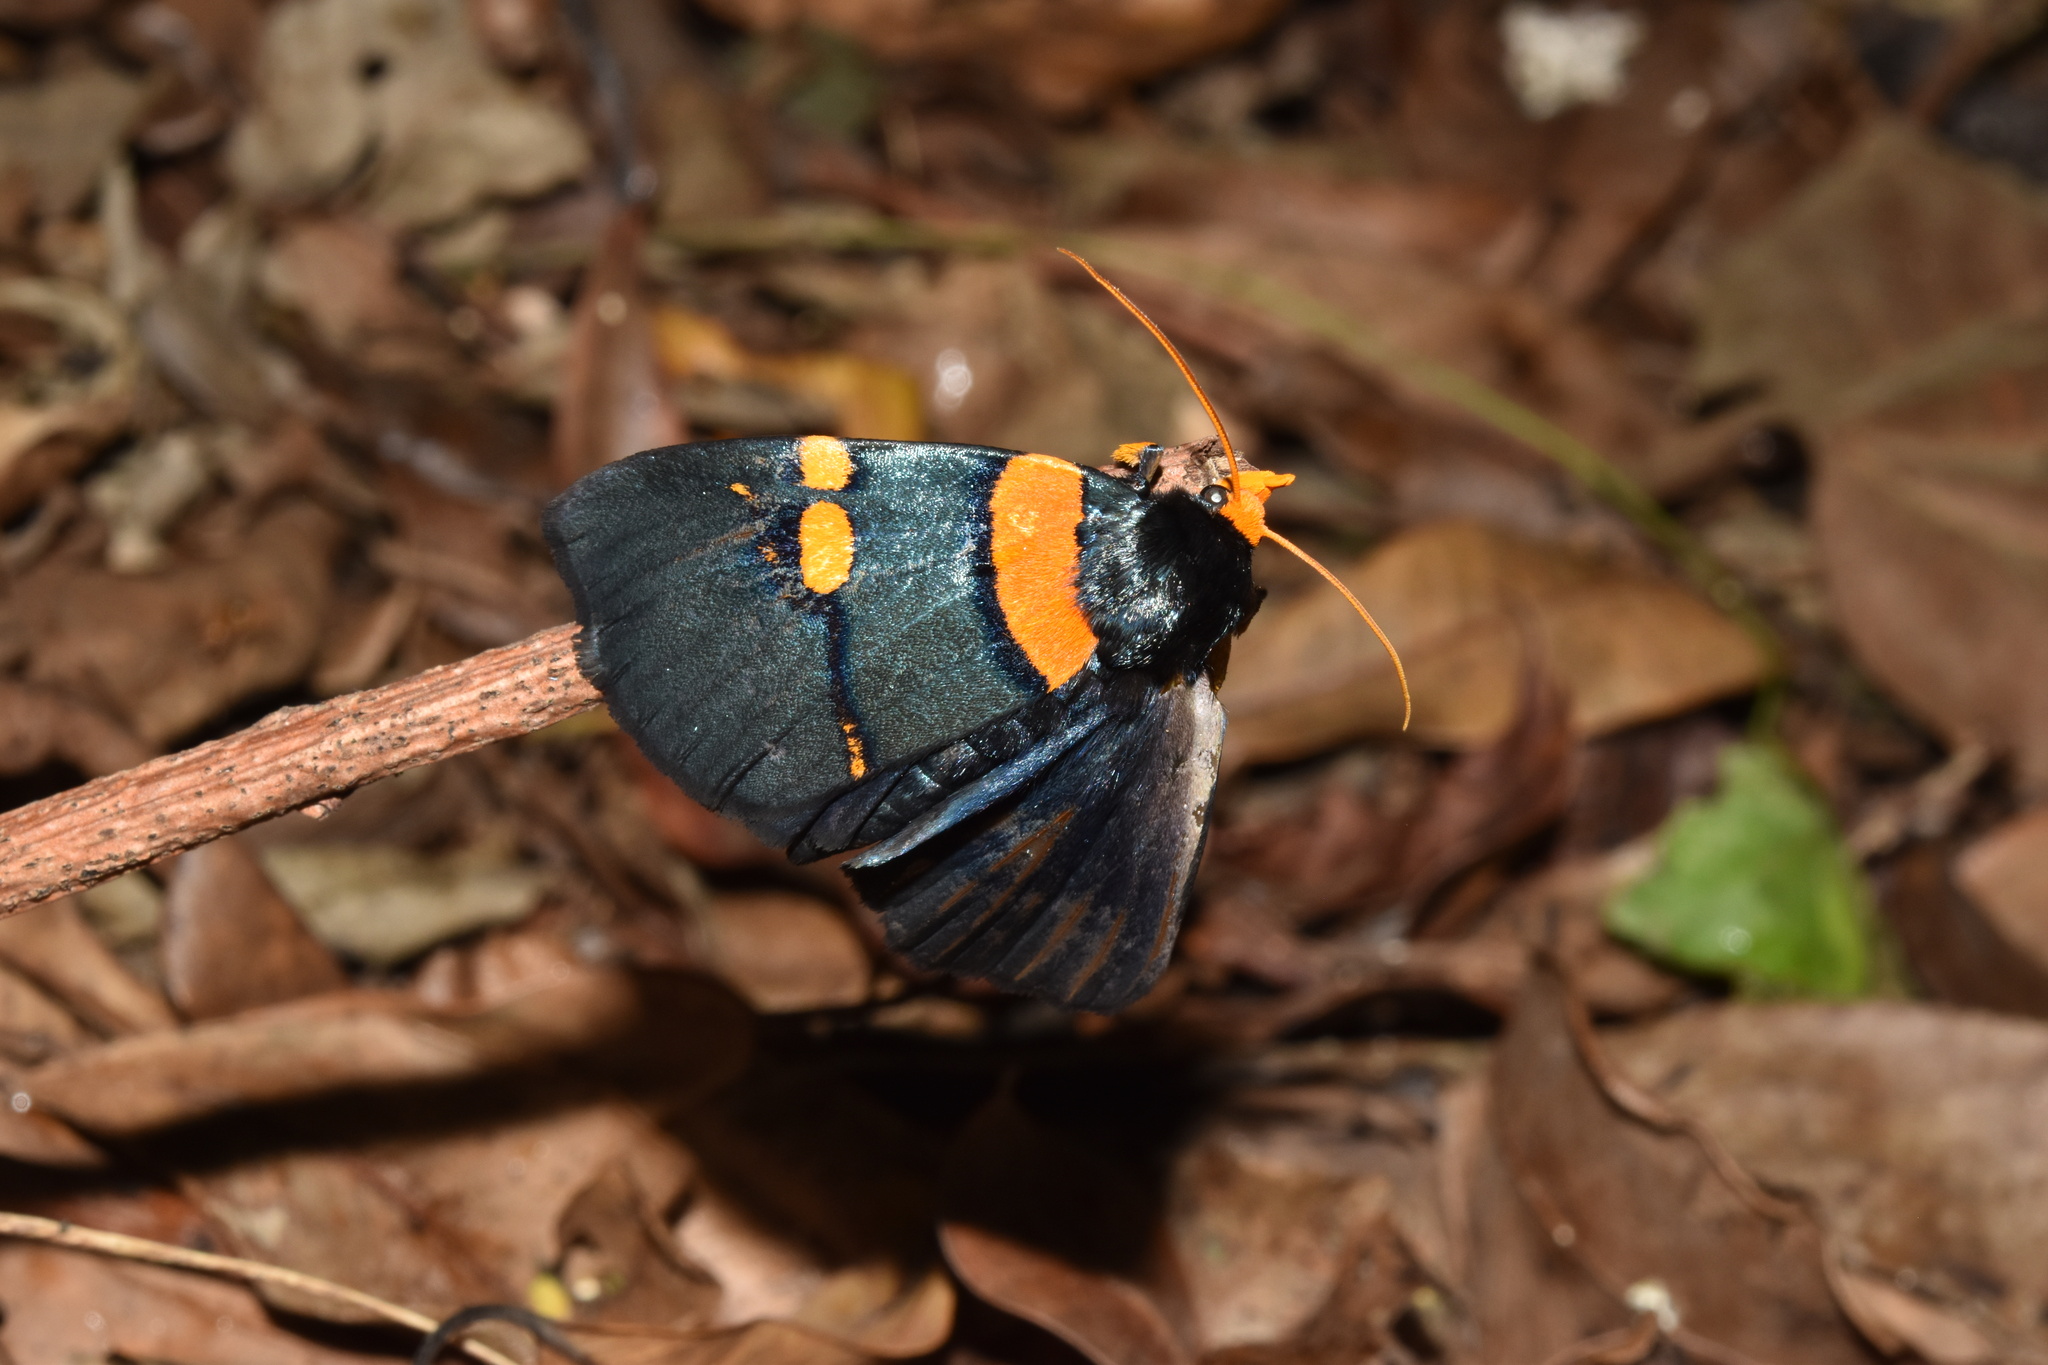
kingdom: Animalia
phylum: Arthropoda
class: Insecta
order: Lepidoptera
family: Erebidae
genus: Egybolis
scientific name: Egybolis vaillantina
